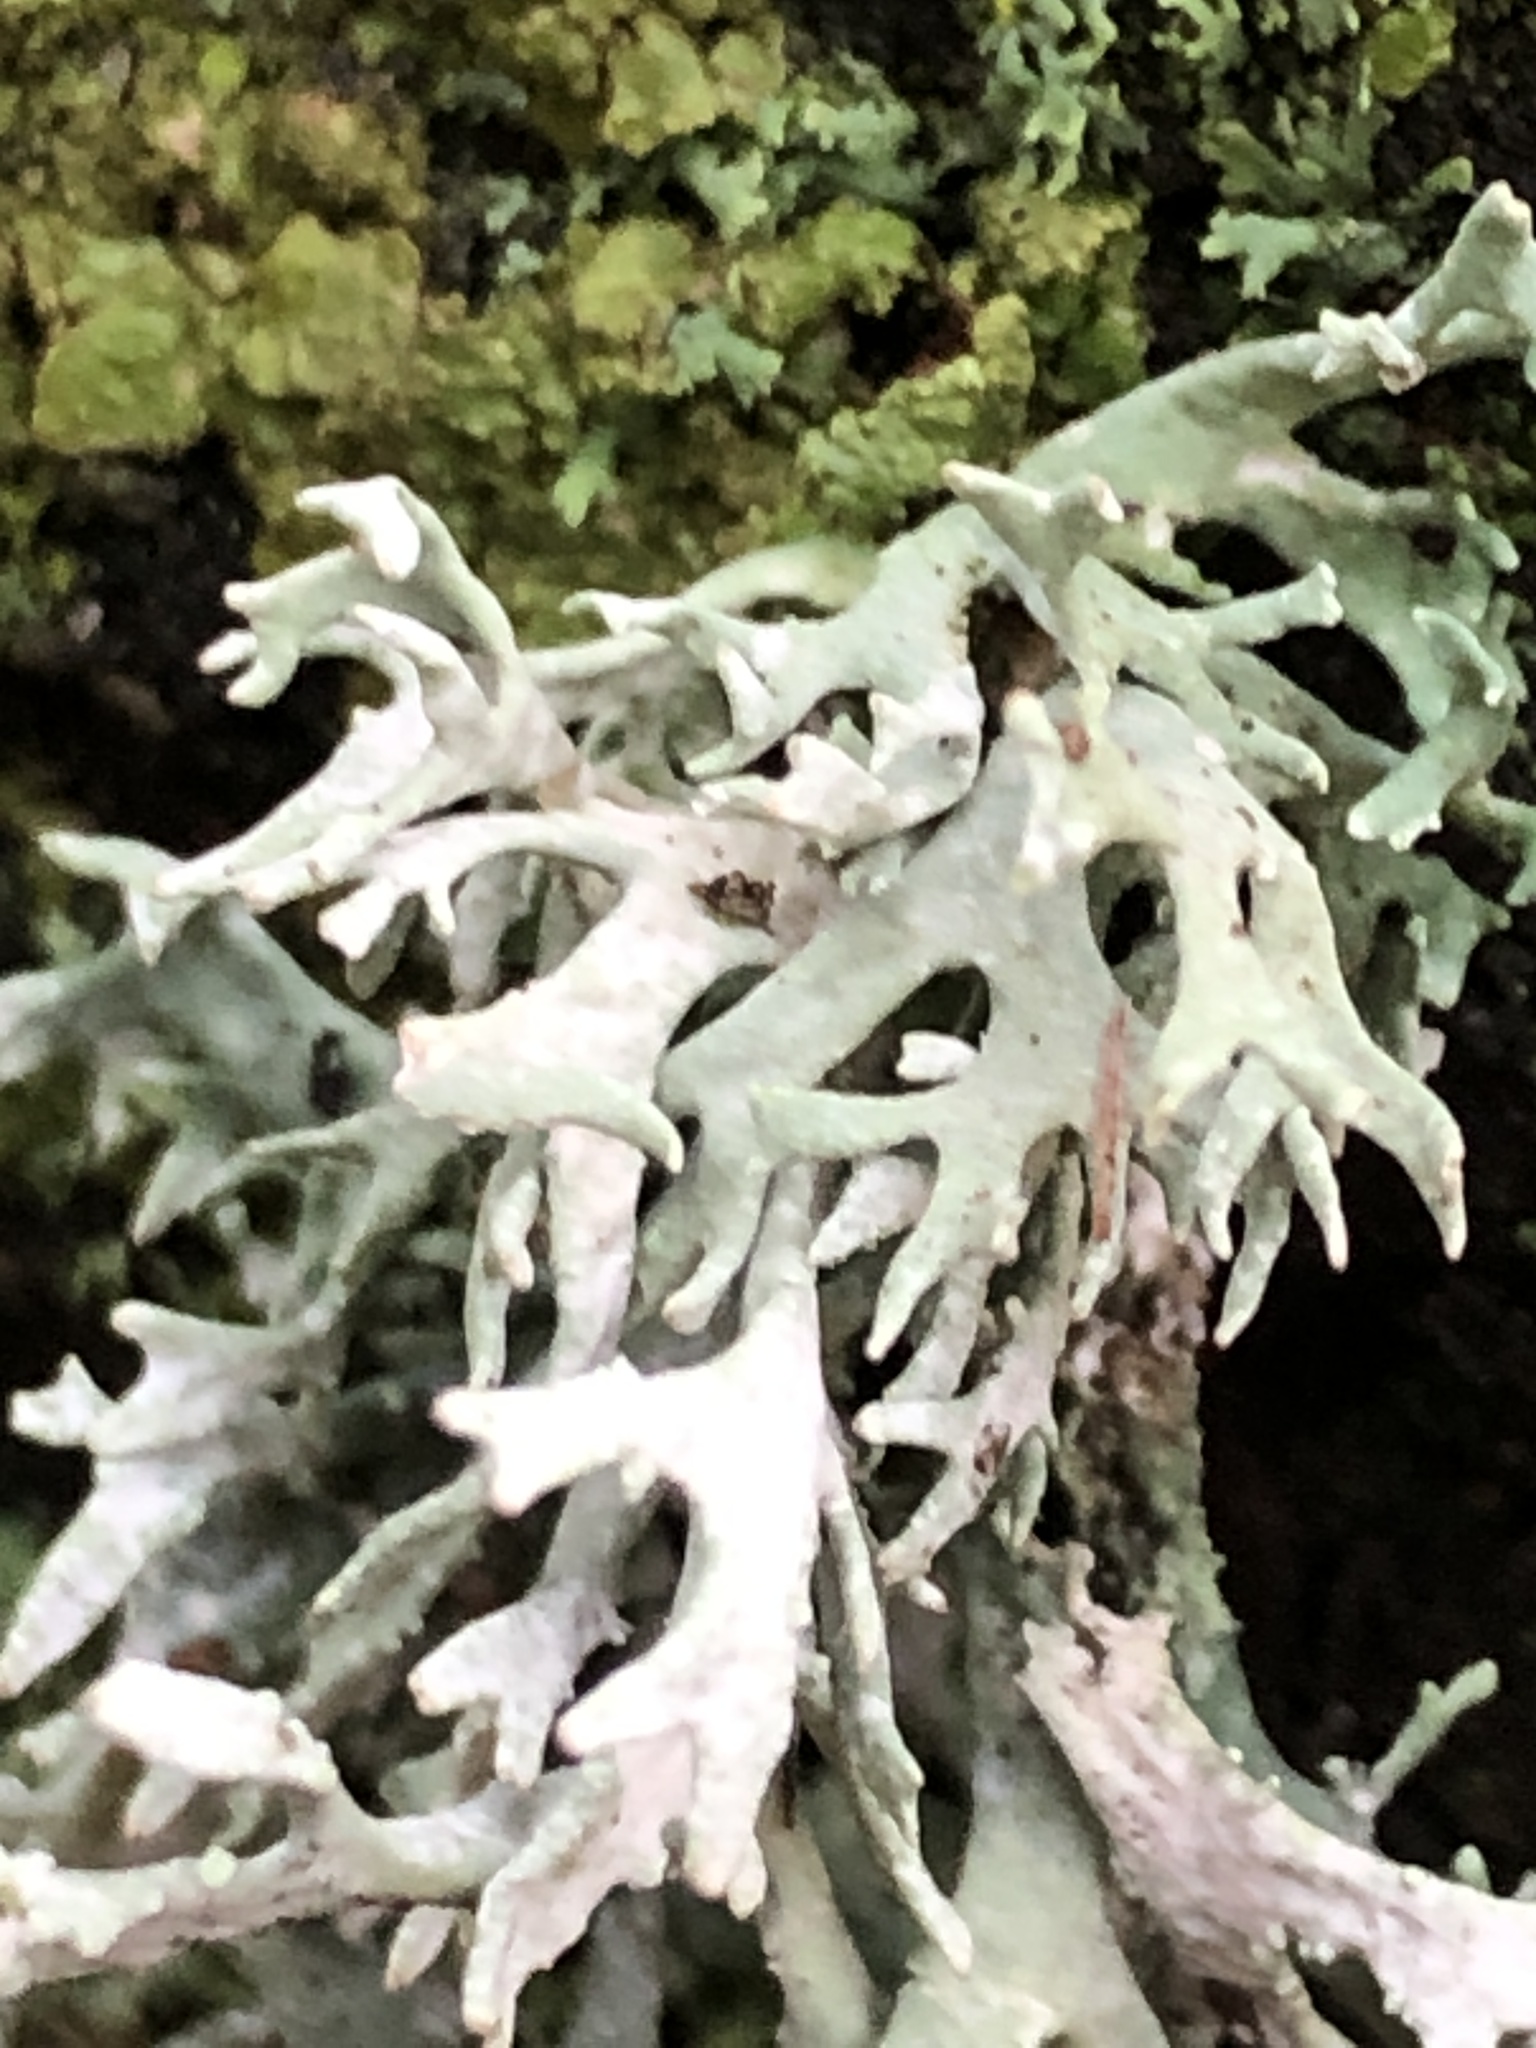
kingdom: Fungi
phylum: Ascomycota
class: Lecanoromycetes
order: Lecanorales
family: Parmeliaceae
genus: Evernia
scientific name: Evernia prunastri
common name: Oak moss
